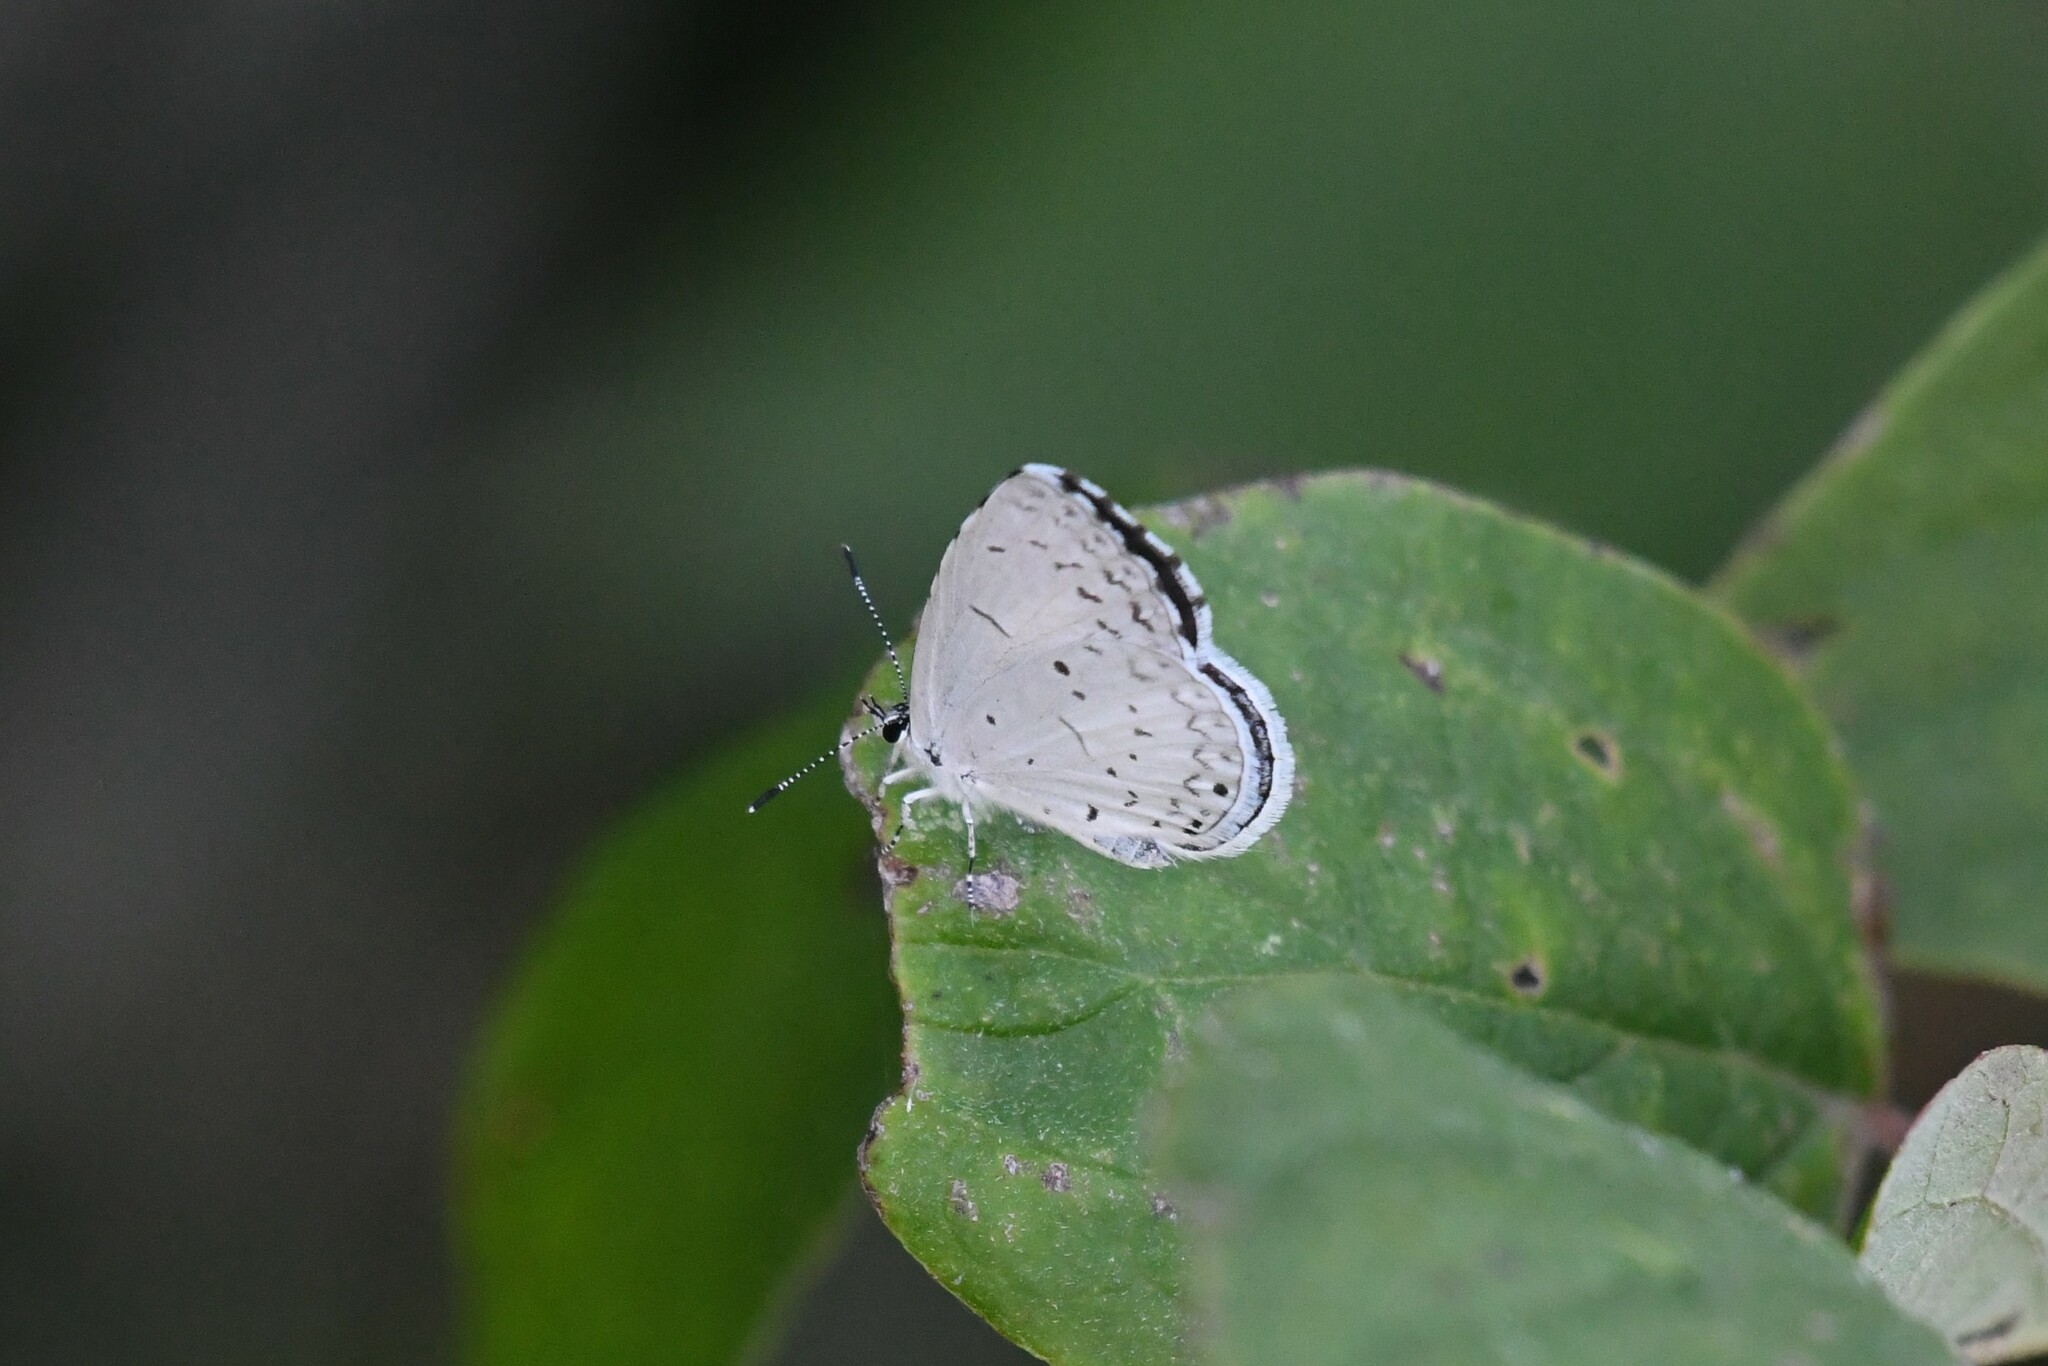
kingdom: Animalia
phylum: Arthropoda
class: Insecta
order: Lepidoptera
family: Lycaenidae
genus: Cyaniris
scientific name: Cyaniris neglecta
